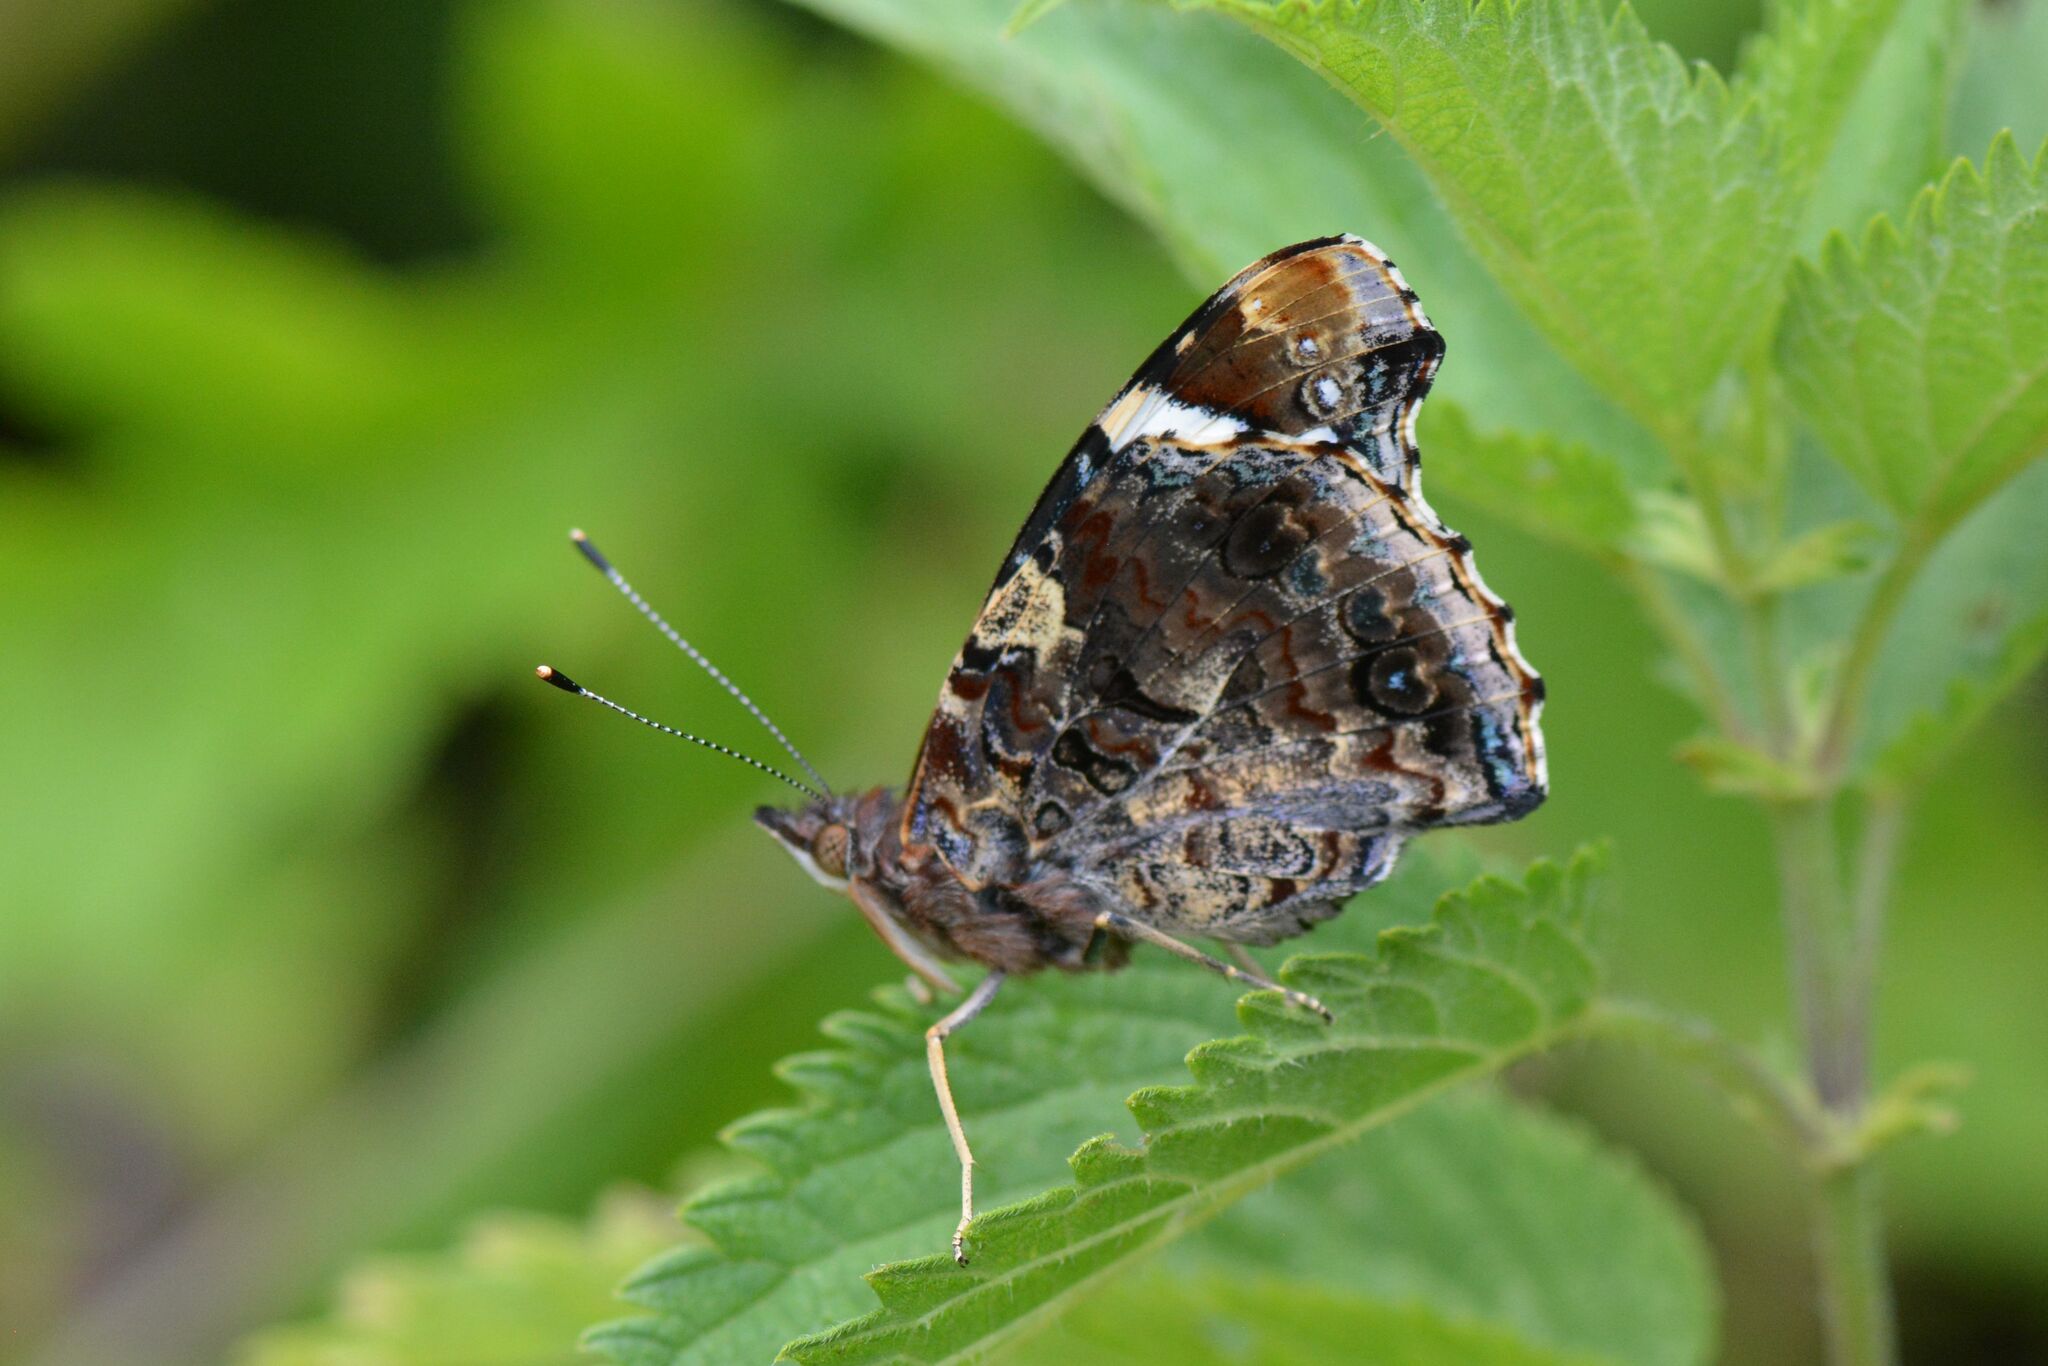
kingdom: Animalia
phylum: Arthropoda
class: Insecta
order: Lepidoptera
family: Nymphalidae
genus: Vanessa
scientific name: Vanessa atalanta
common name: Red admiral
